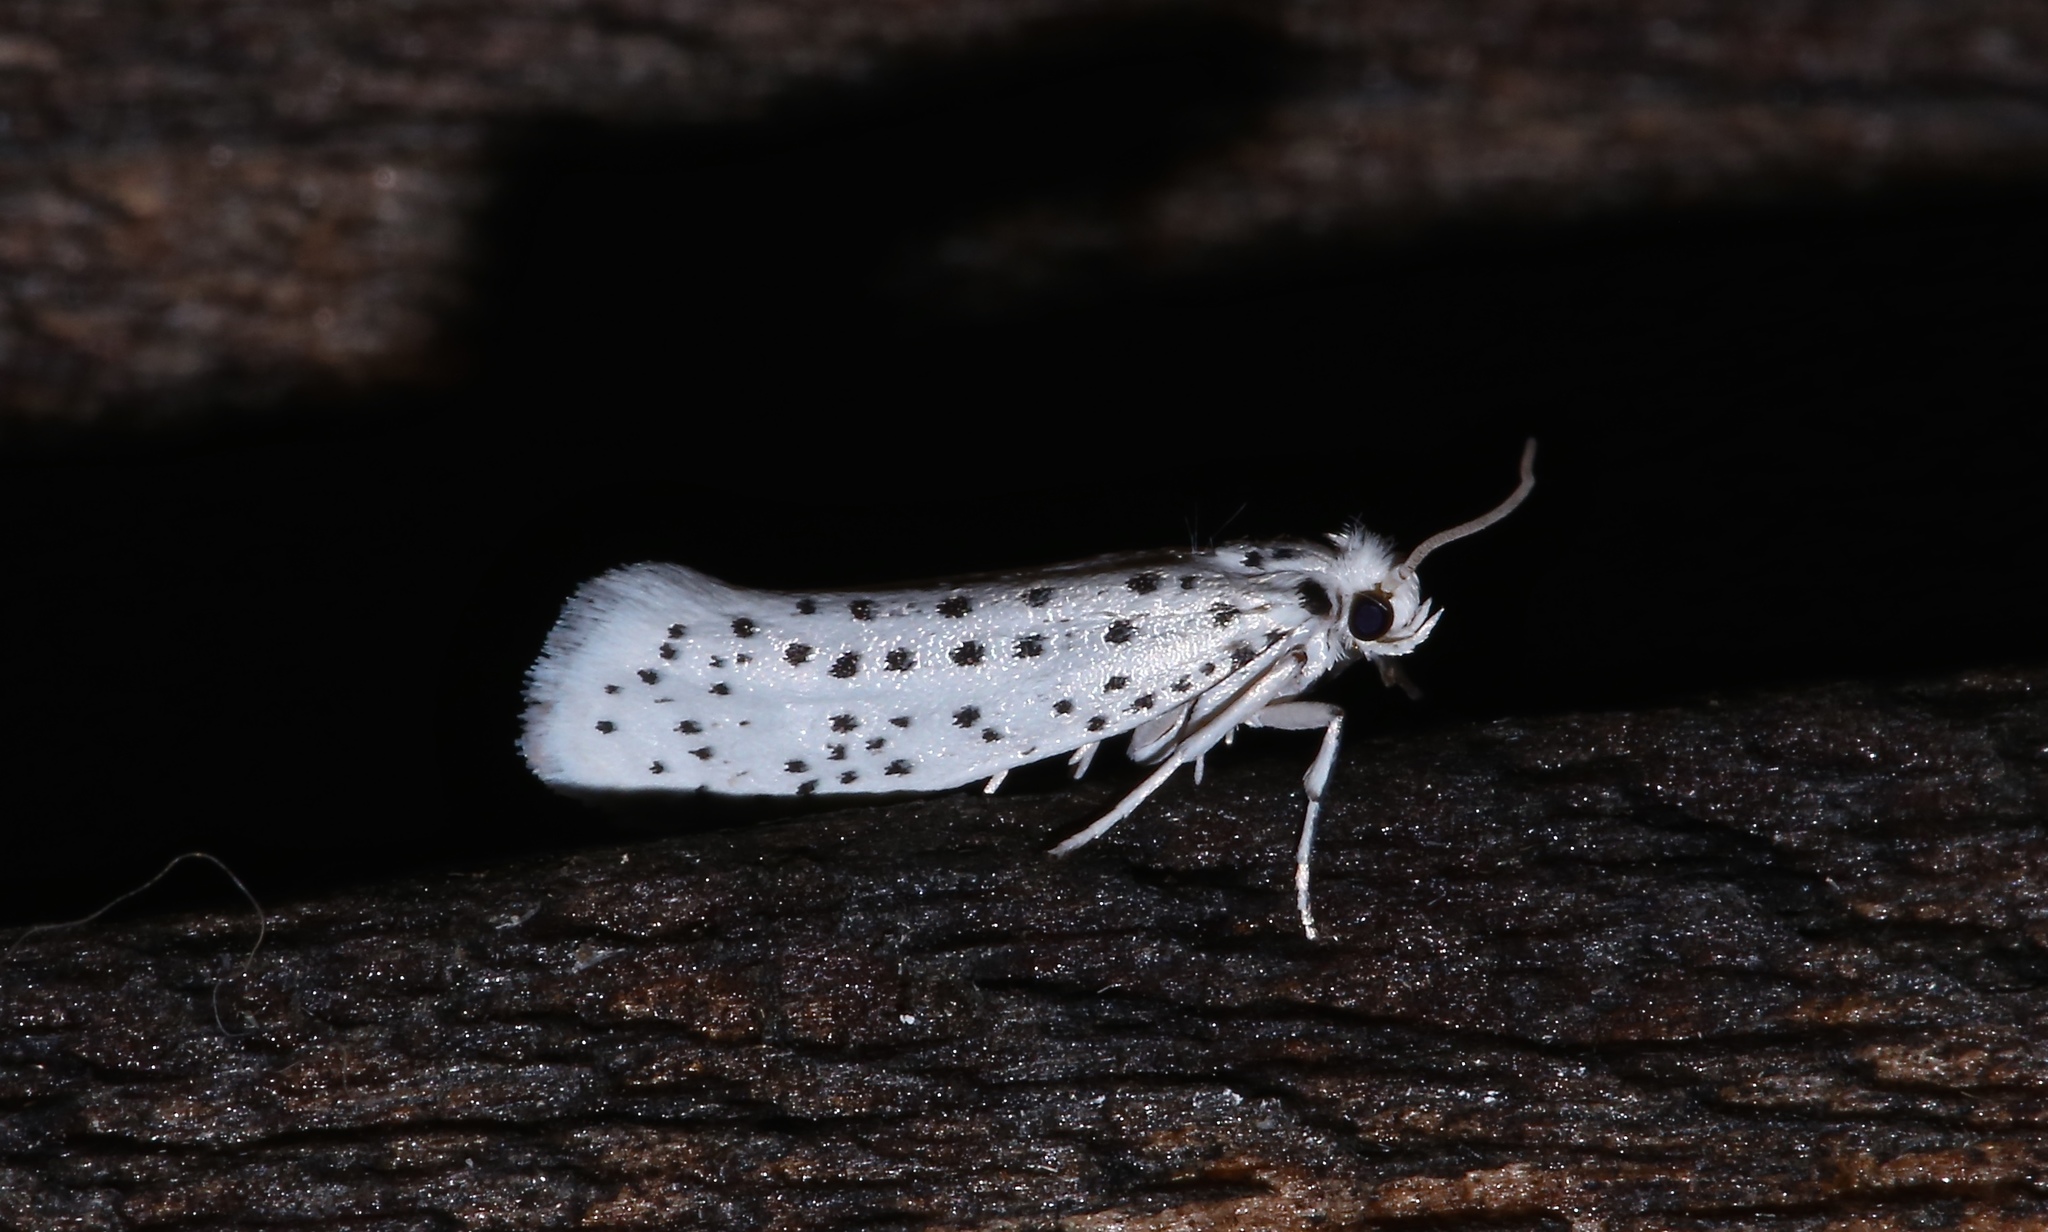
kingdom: Animalia
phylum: Arthropoda
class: Insecta
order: Lepidoptera
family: Yponomeutidae
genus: Yponomeuta
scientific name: Yponomeuta multipunctella
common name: American ermine moth
